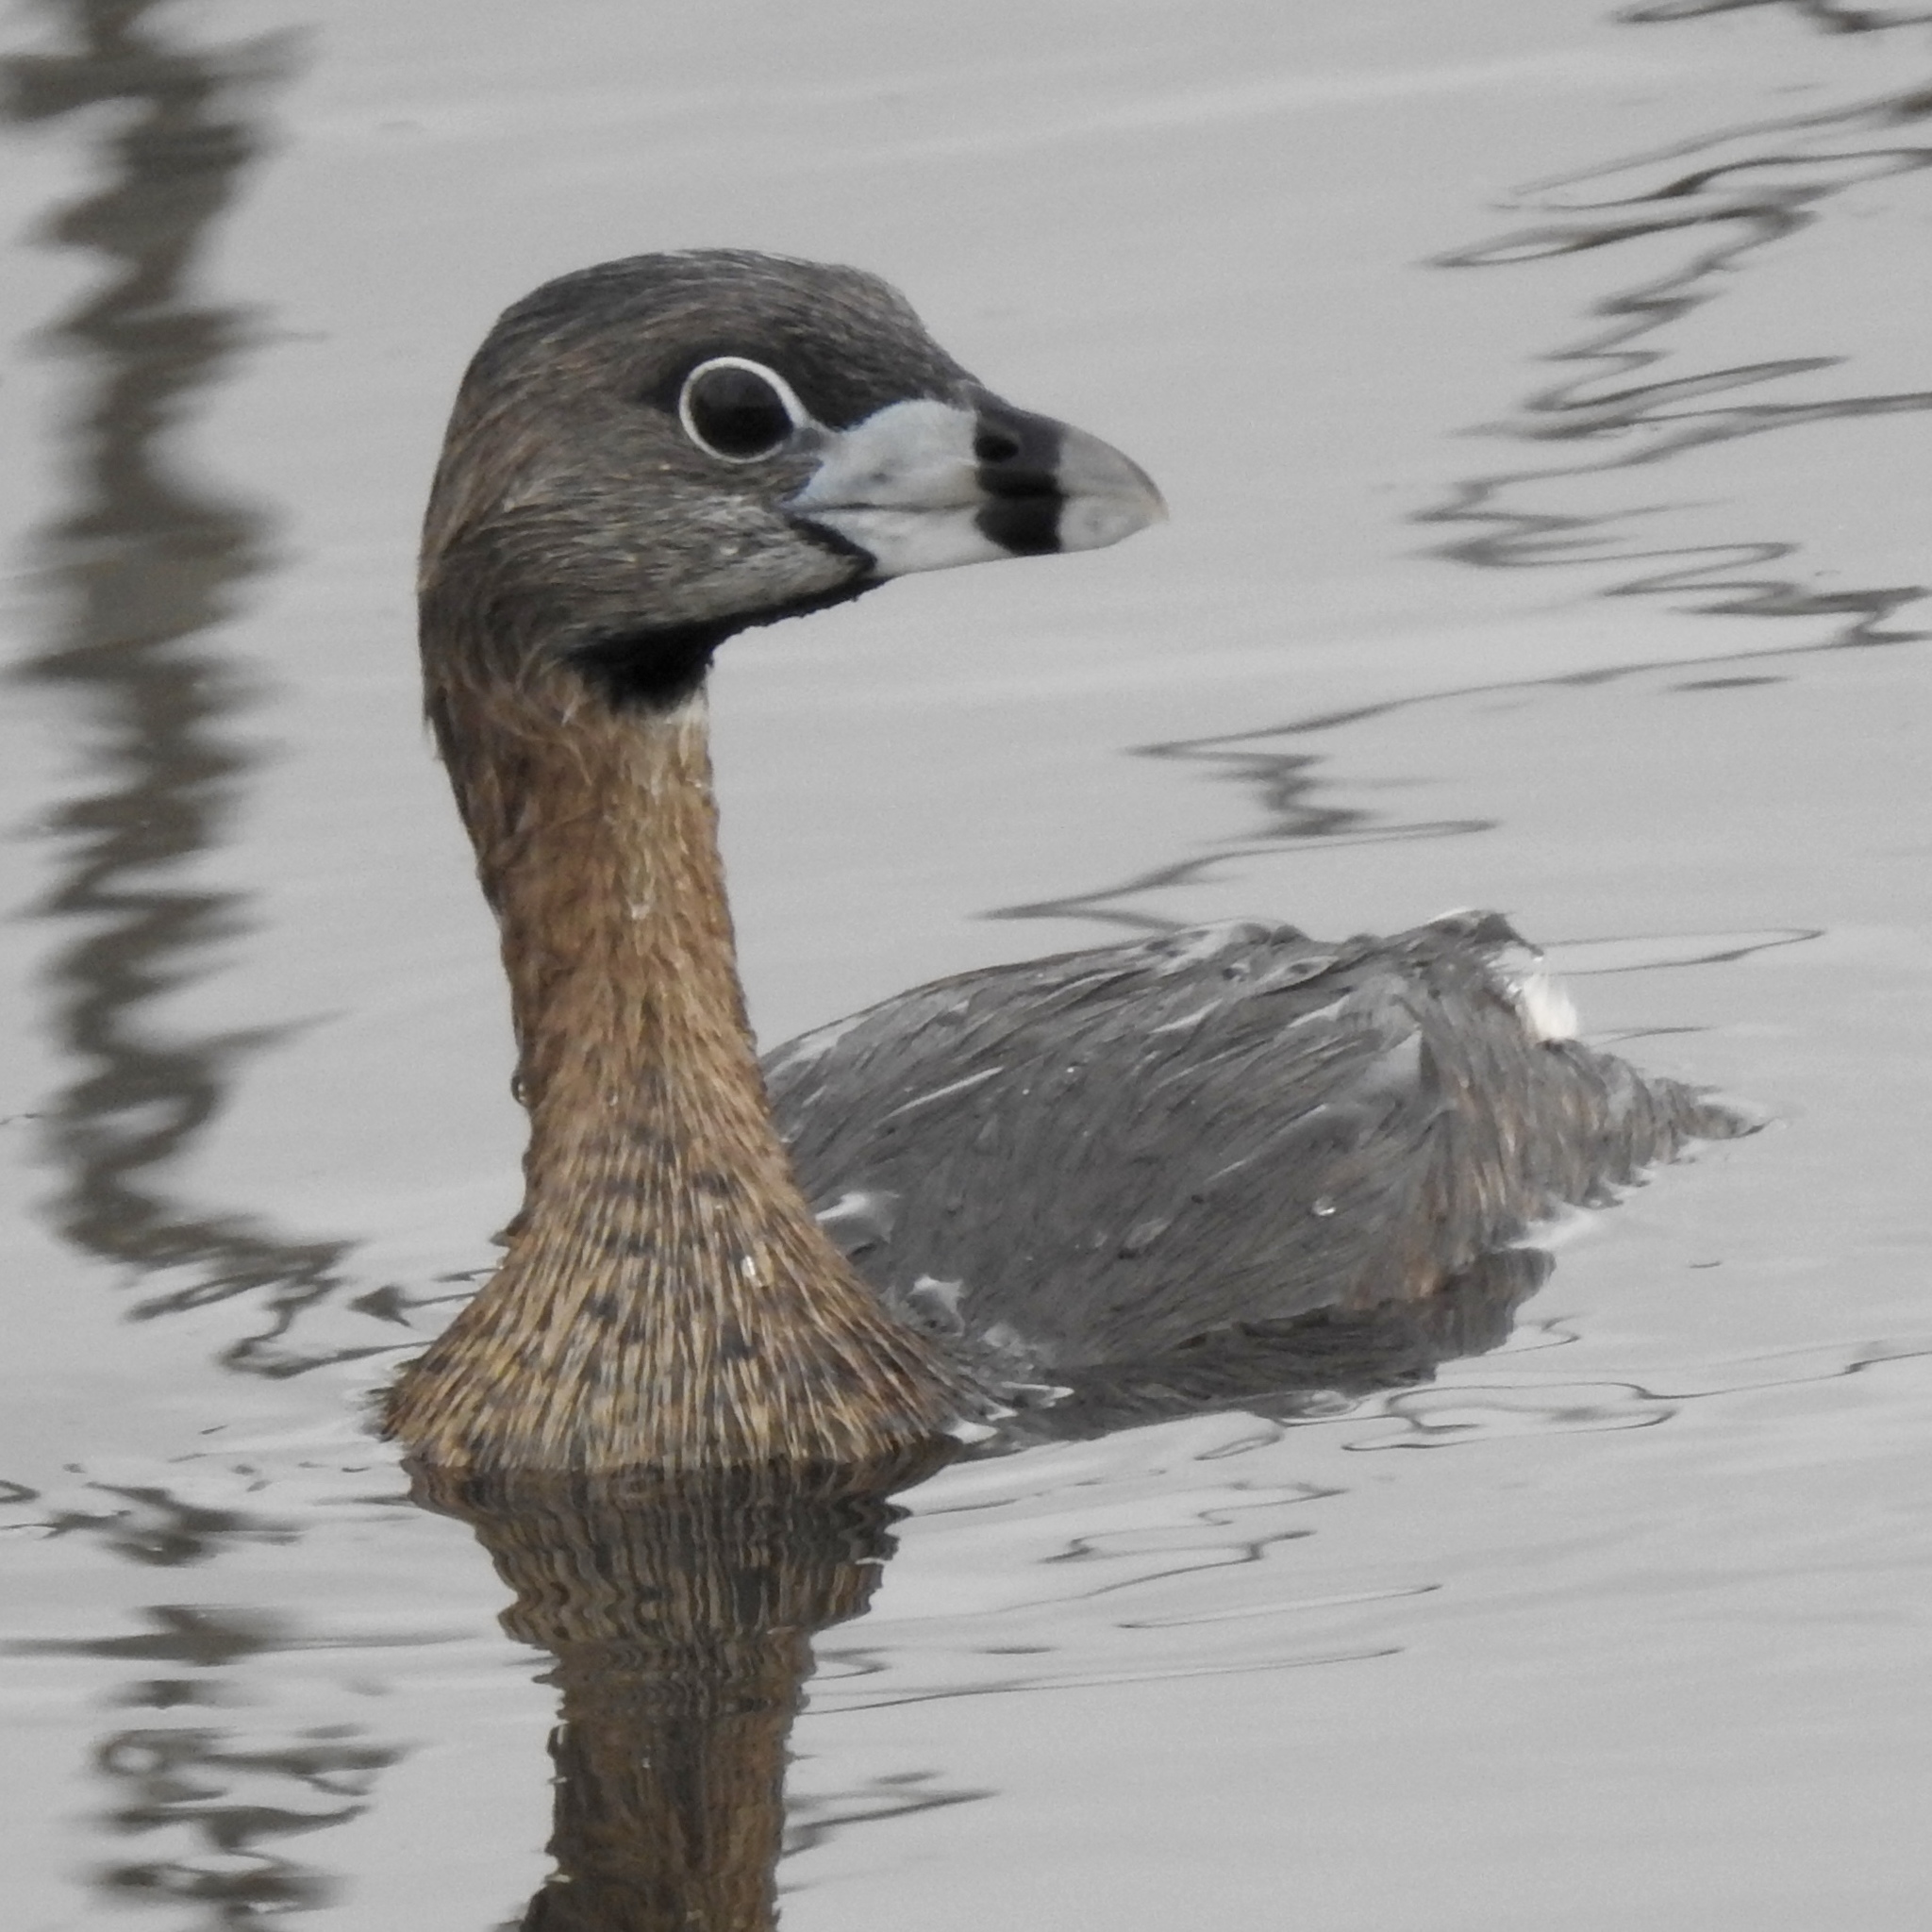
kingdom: Animalia
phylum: Chordata
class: Aves
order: Podicipediformes
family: Podicipedidae
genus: Podilymbus
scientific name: Podilymbus podiceps
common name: Pied-billed grebe
